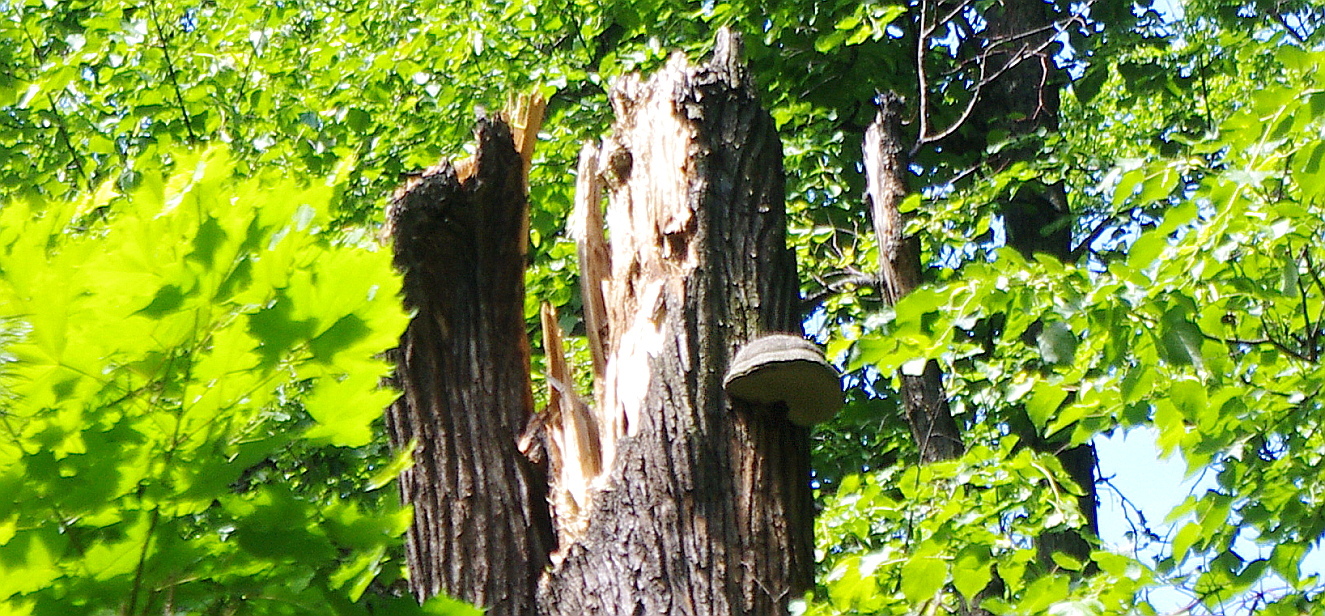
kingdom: Fungi
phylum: Basidiomycota
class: Agaricomycetes
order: Polyporales
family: Polyporaceae
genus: Fomes
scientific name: Fomes fomentarius
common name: Hoof fungus
